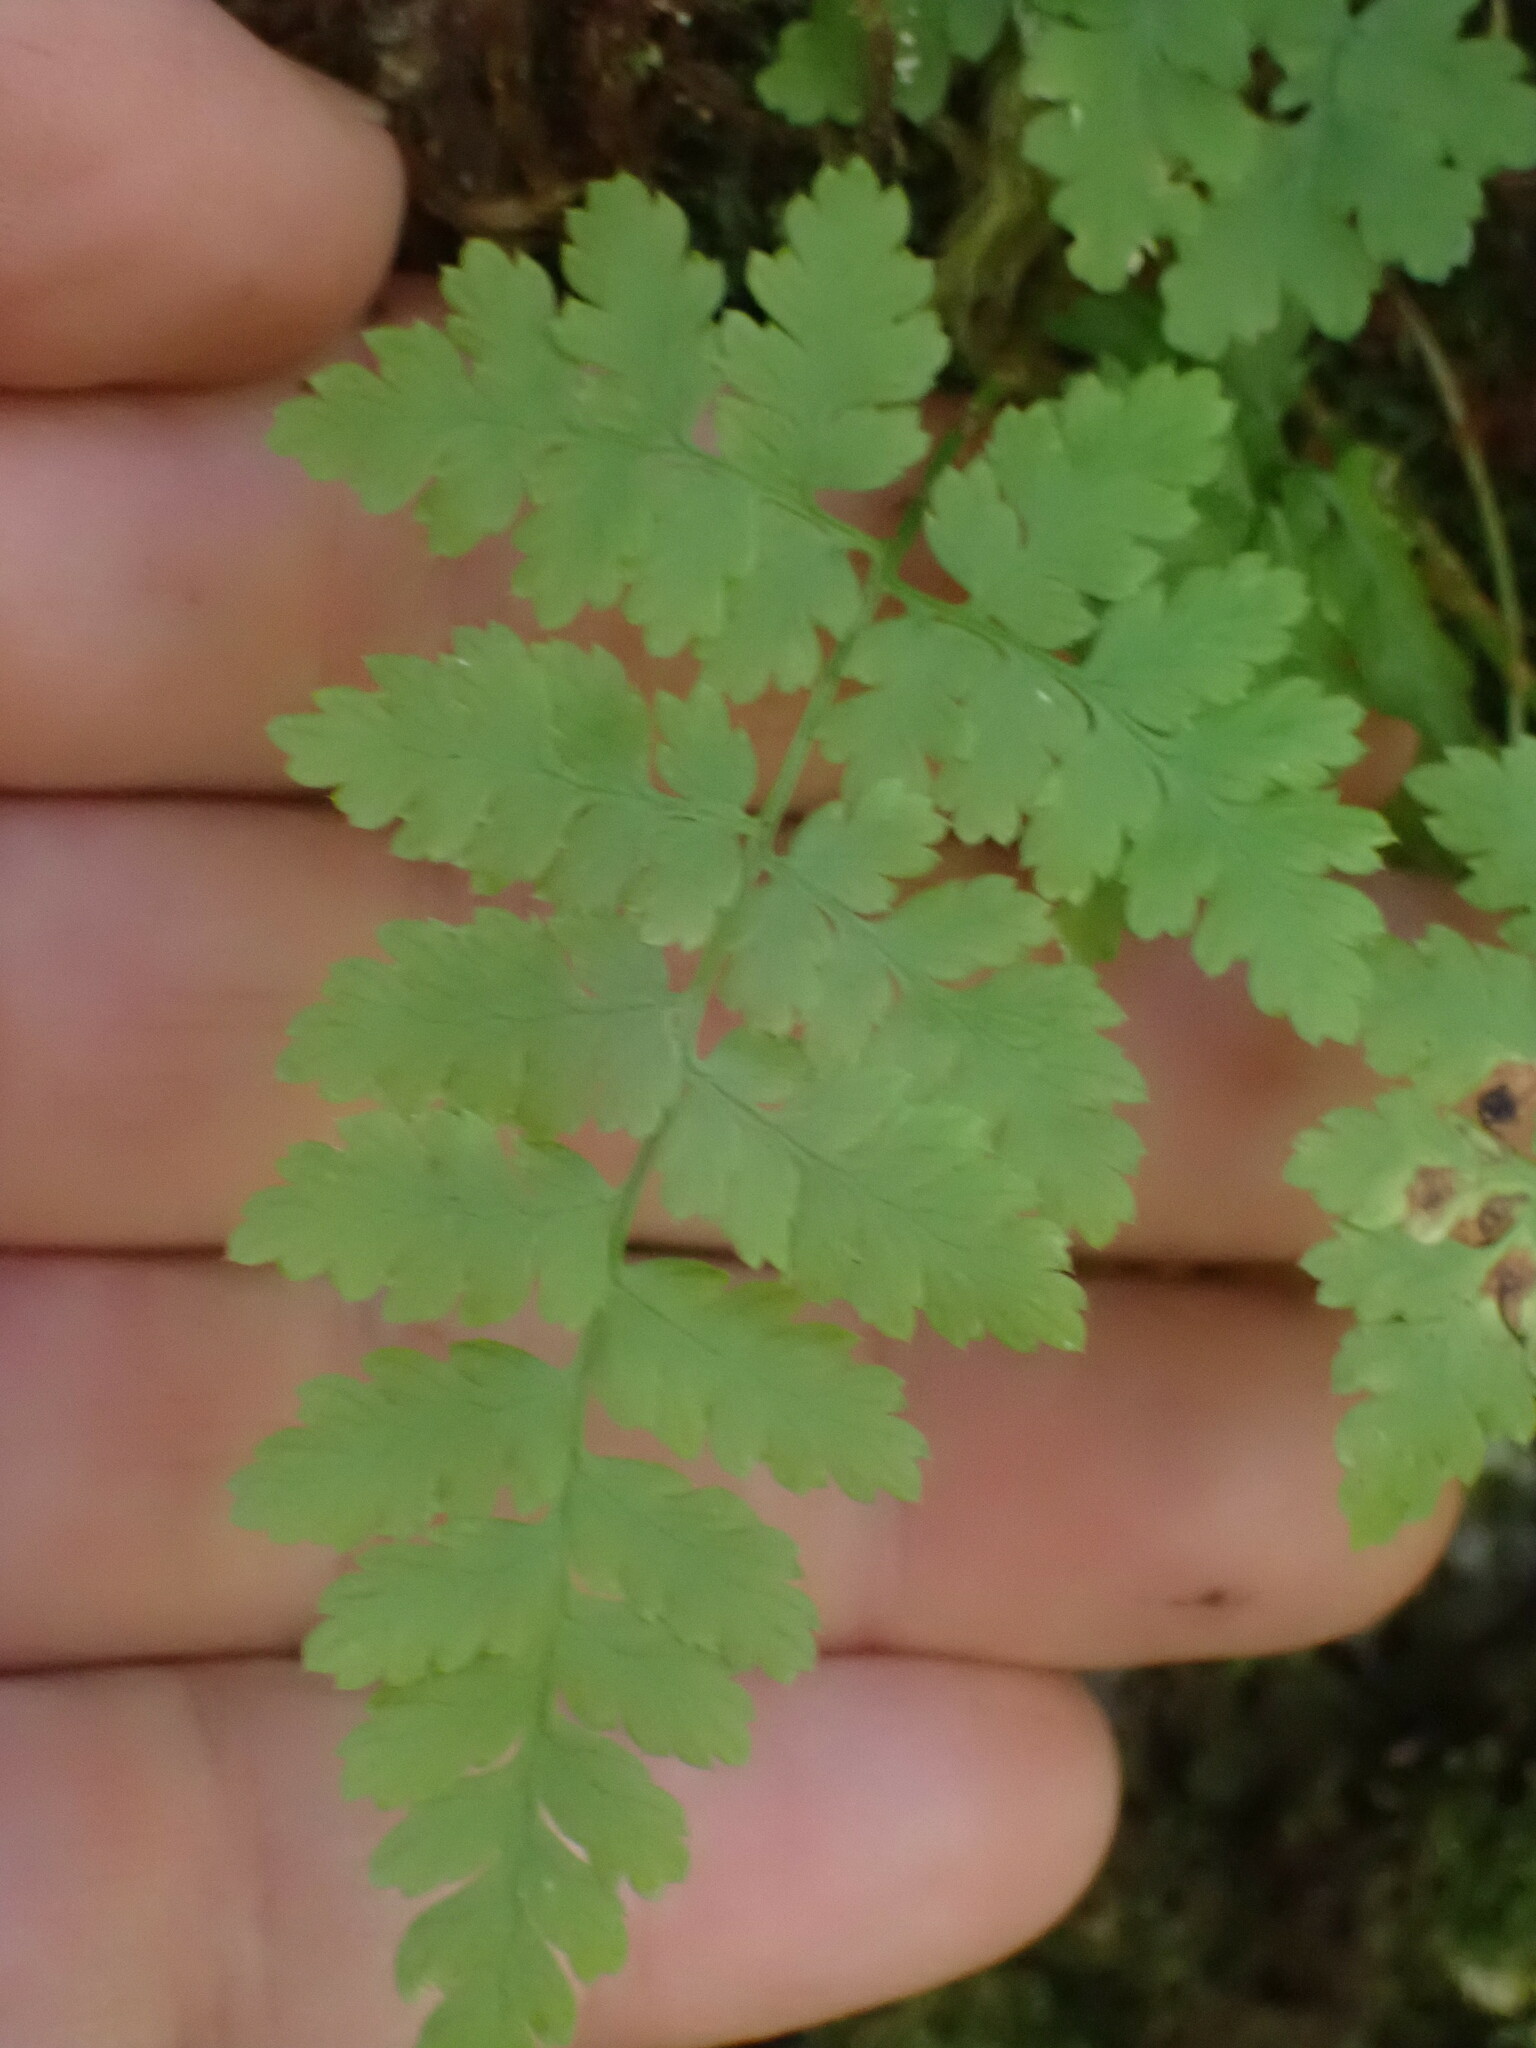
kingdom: Plantae
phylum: Tracheophyta
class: Polypodiopsida
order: Polypodiales
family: Dryopteridaceae
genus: Dryopteris
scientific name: Dryopteris expansa
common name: Northern buckler fern
